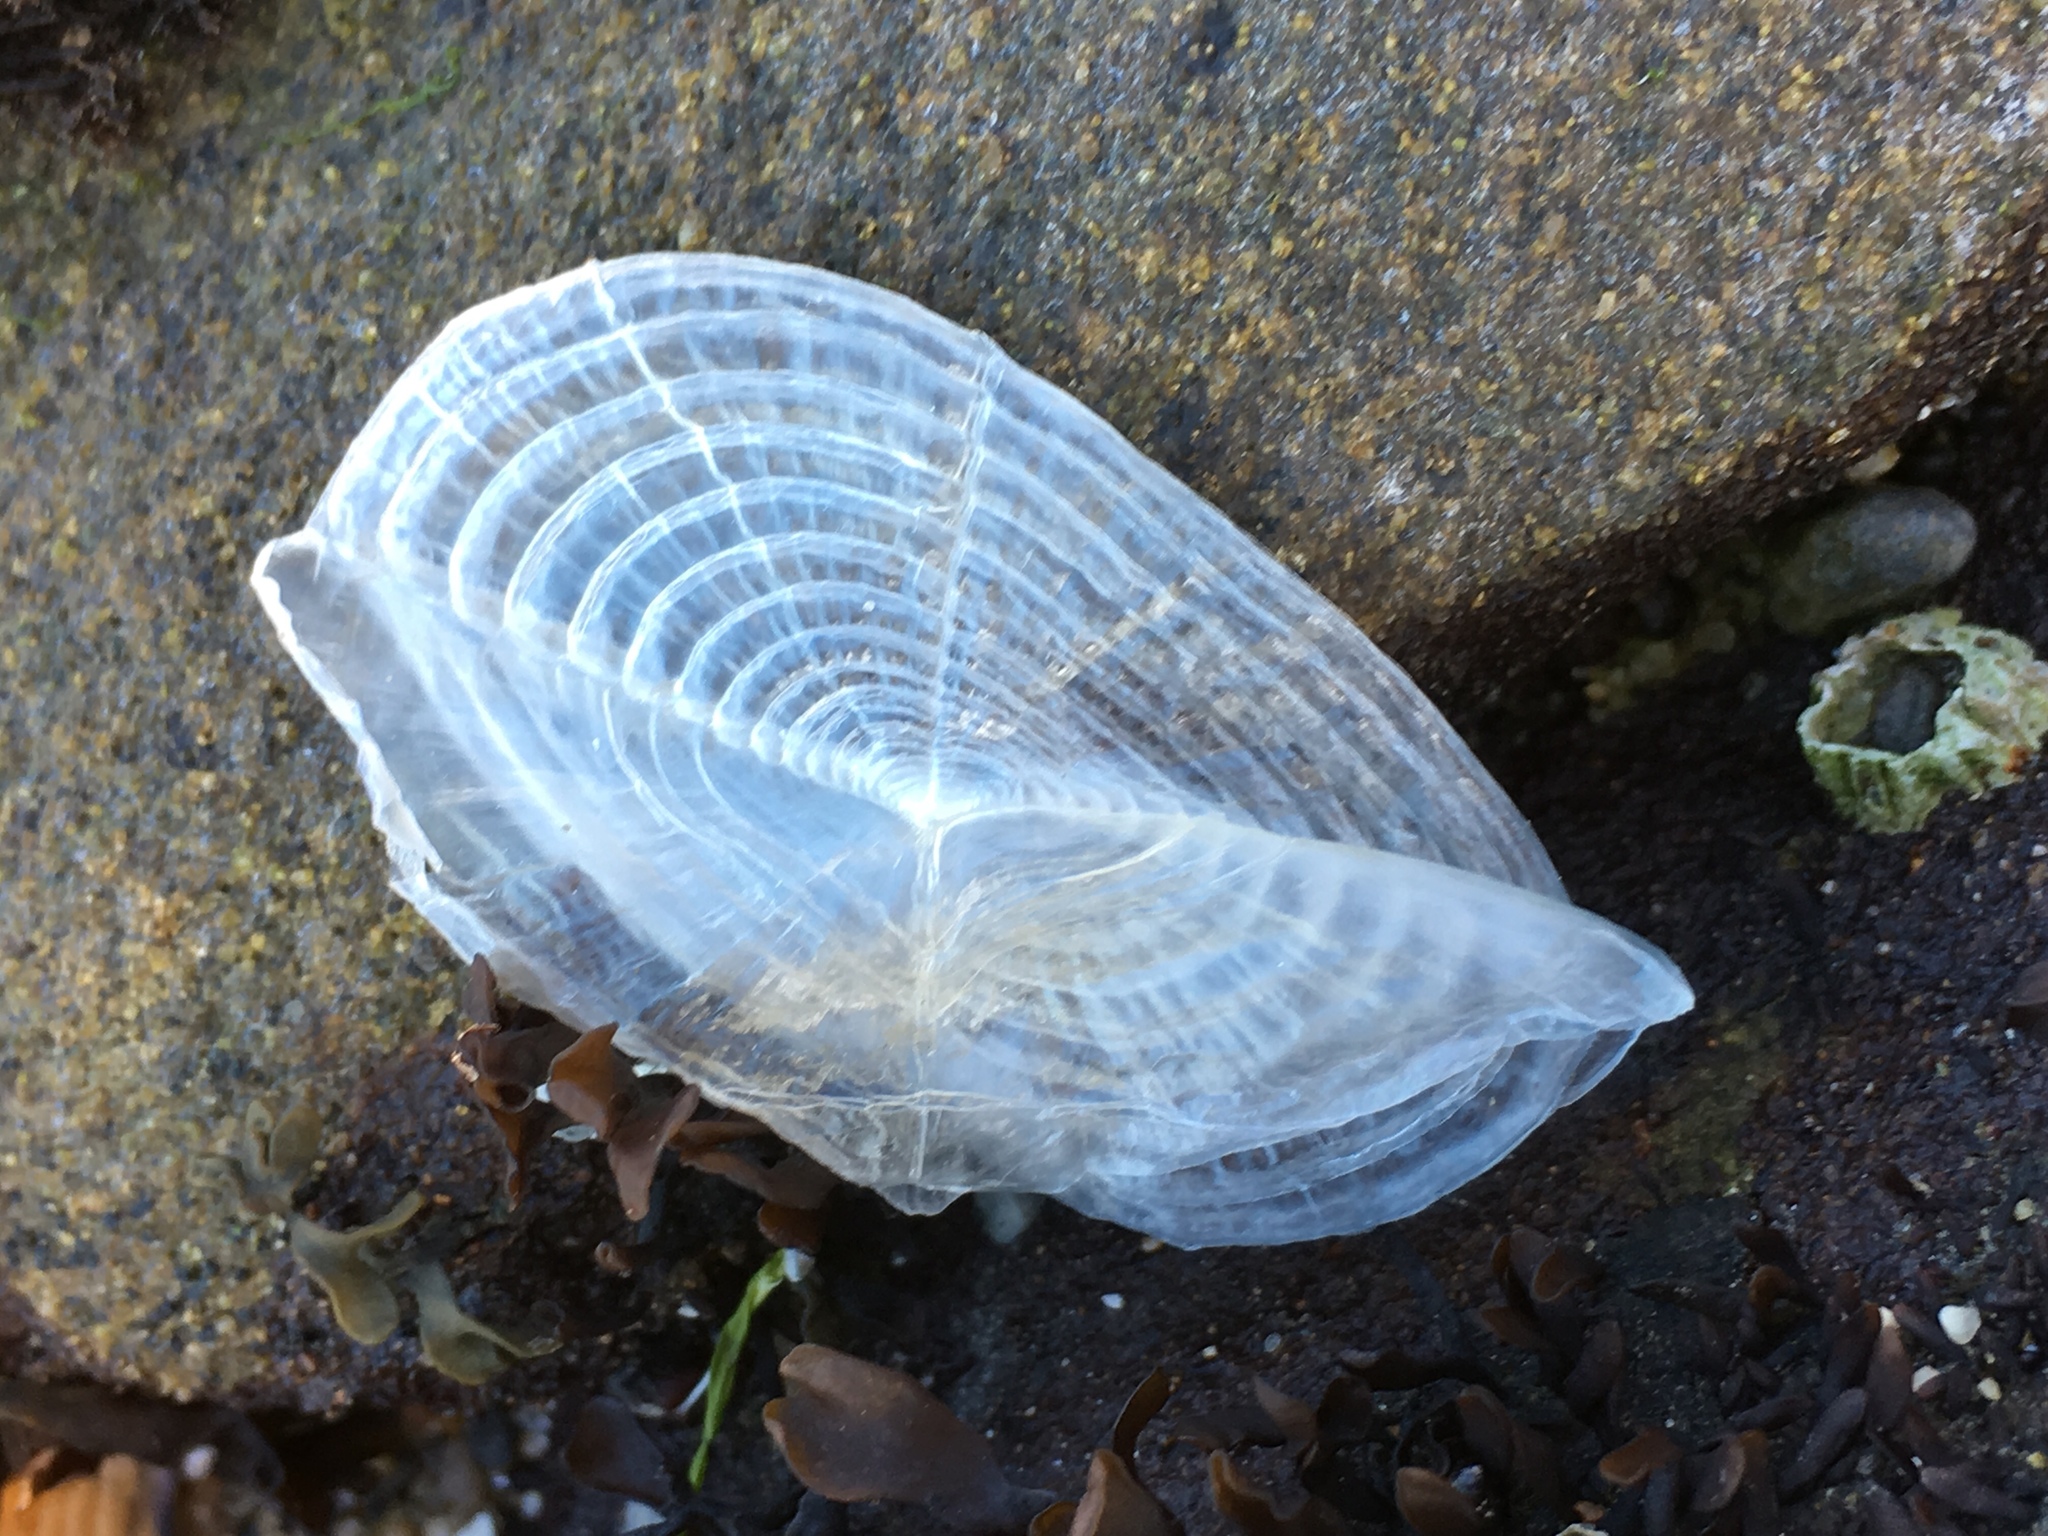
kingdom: Animalia
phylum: Cnidaria
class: Hydrozoa
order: Anthoathecata
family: Porpitidae
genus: Velella
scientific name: Velella velella
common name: By-the-wind-sailor
